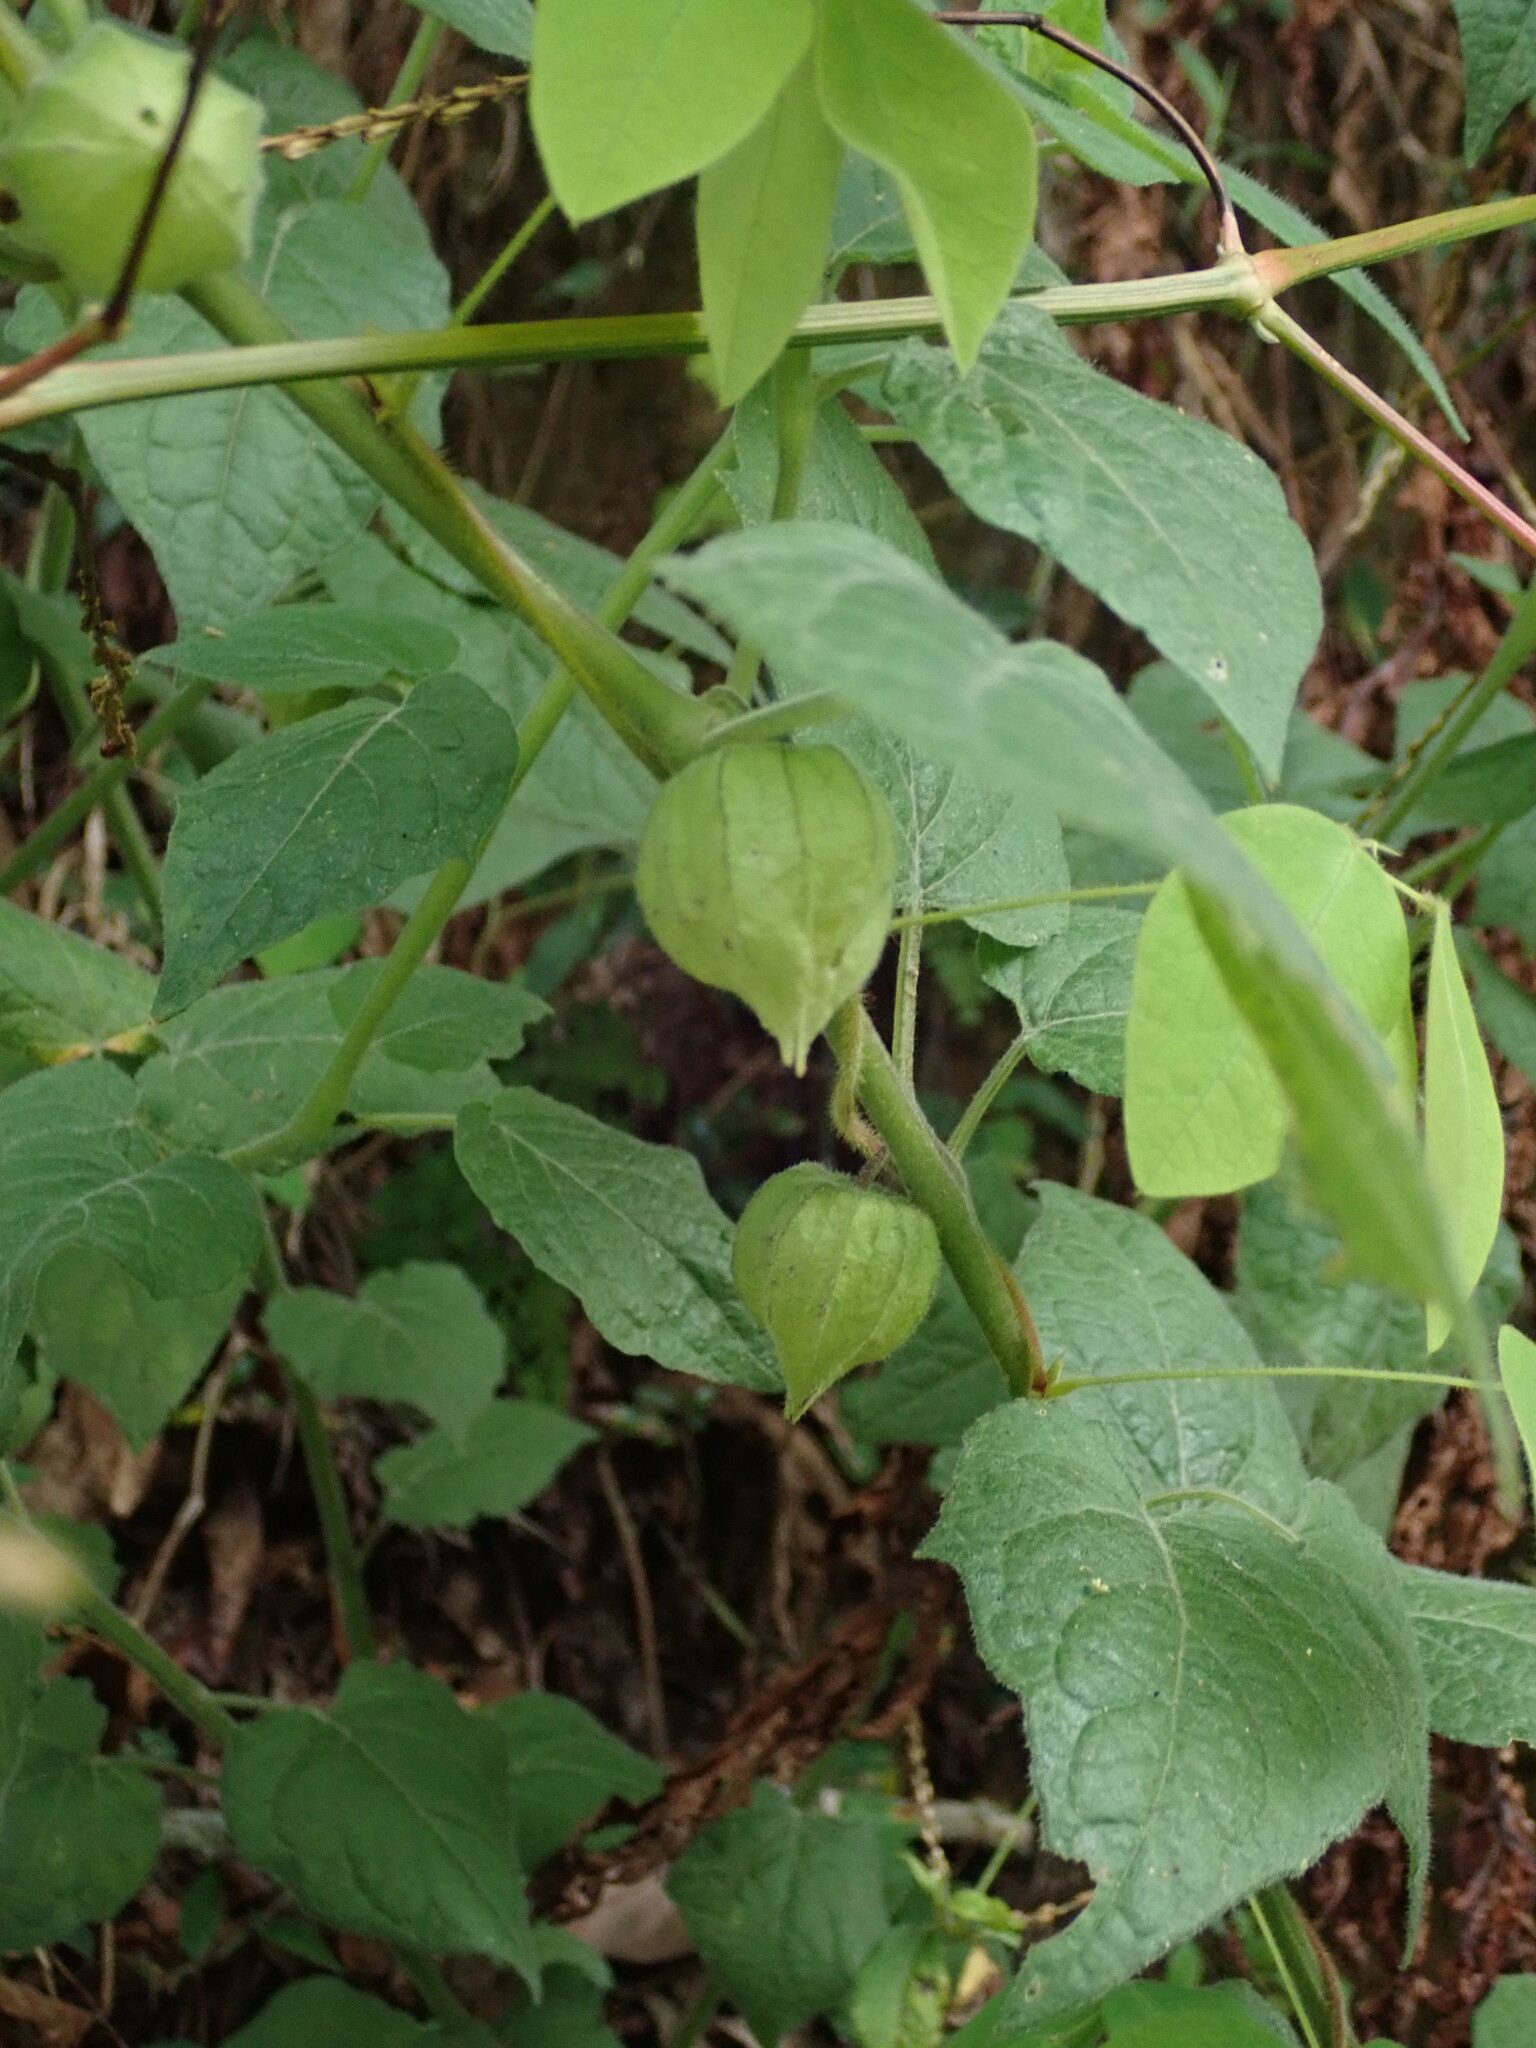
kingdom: Plantae
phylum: Tracheophyta
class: Magnoliopsida
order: Solanales
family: Solanaceae
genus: Physalis
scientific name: Physalis peruviana
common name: Cape-gooseberry
